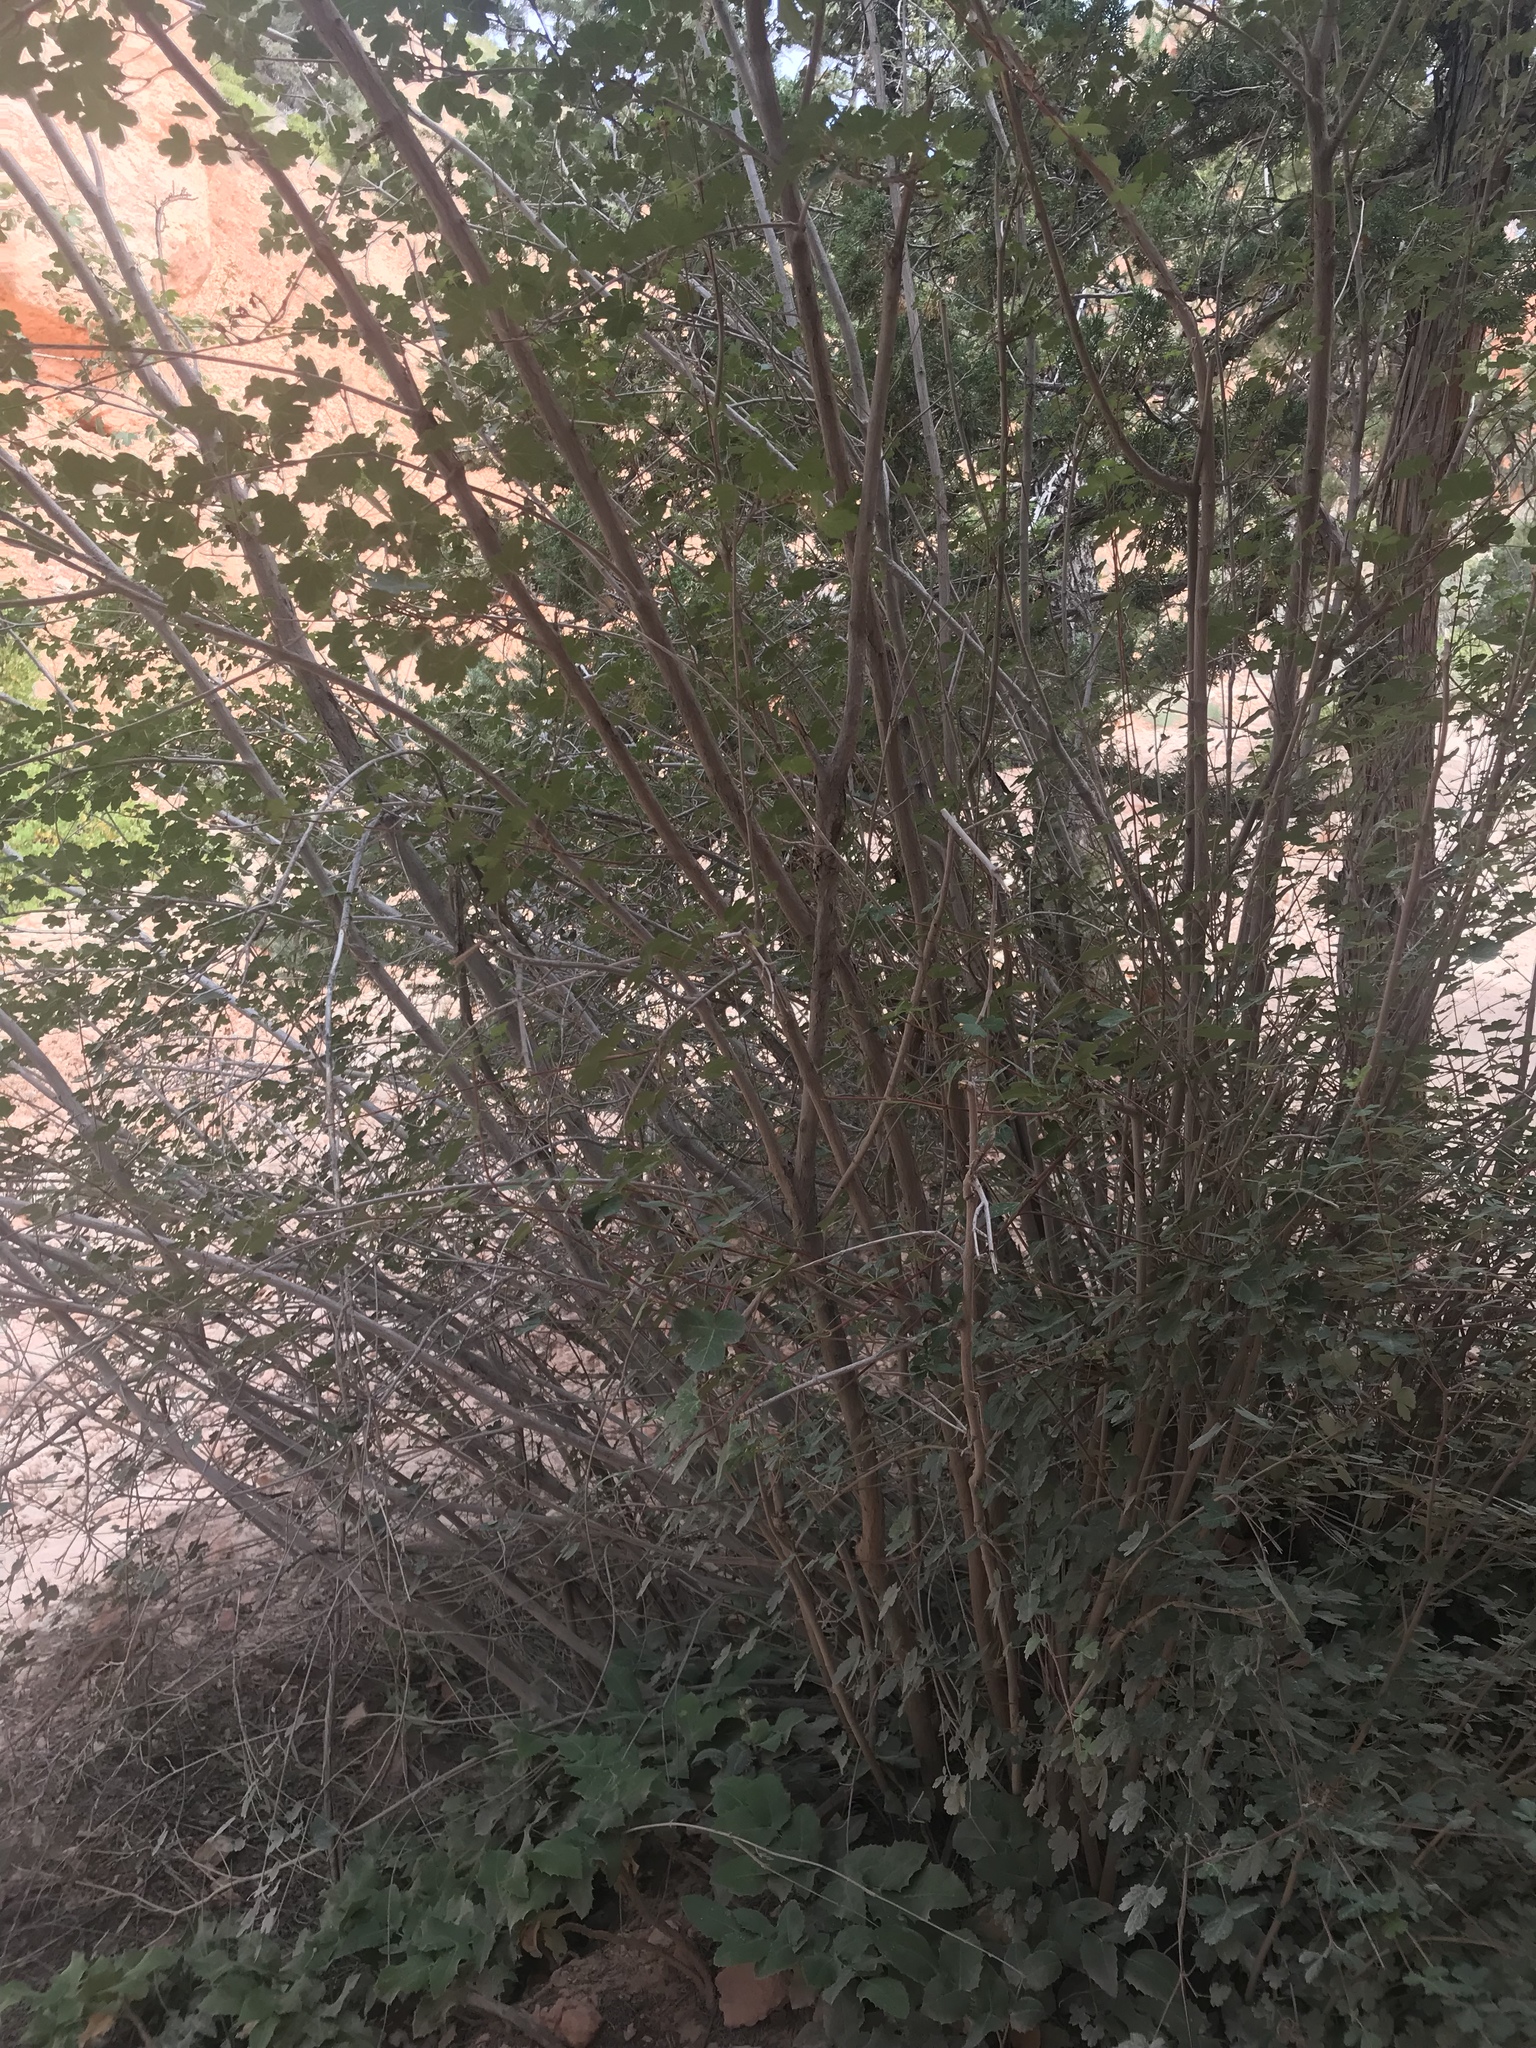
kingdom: Plantae
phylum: Tracheophyta
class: Magnoliopsida
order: Sapindales
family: Anacardiaceae
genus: Rhus
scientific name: Rhus aromatica
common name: Aromatic sumac
